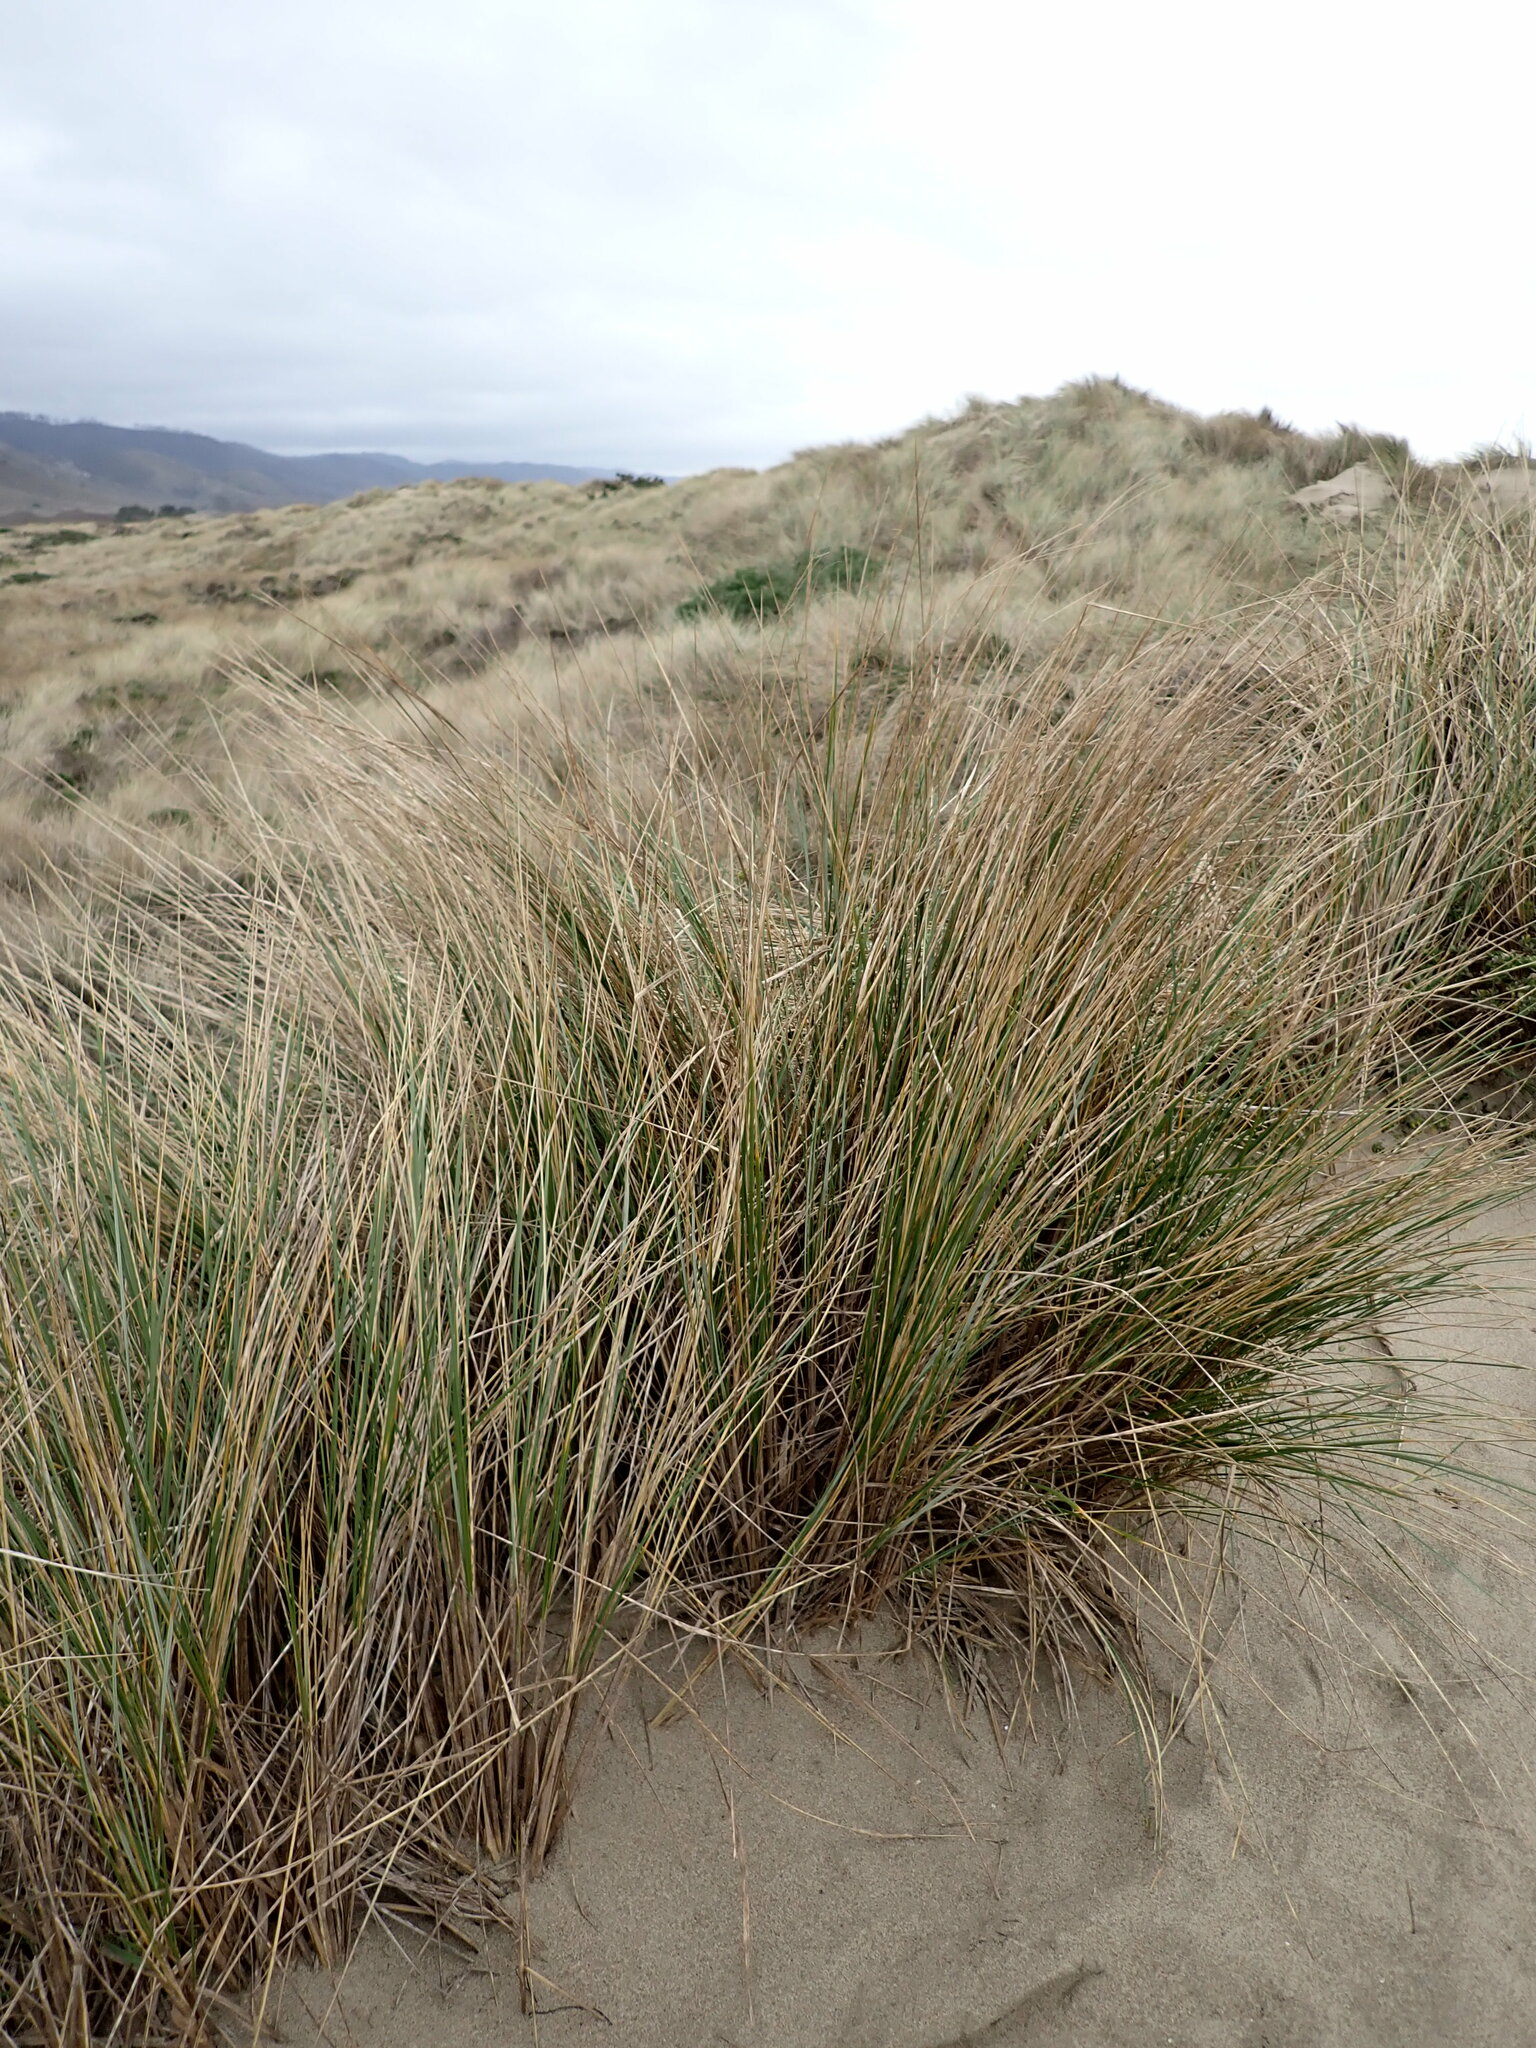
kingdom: Plantae
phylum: Tracheophyta
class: Liliopsida
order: Poales
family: Poaceae
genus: Calamagrostis
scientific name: Calamagrostis arenaria
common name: European beachgrass
